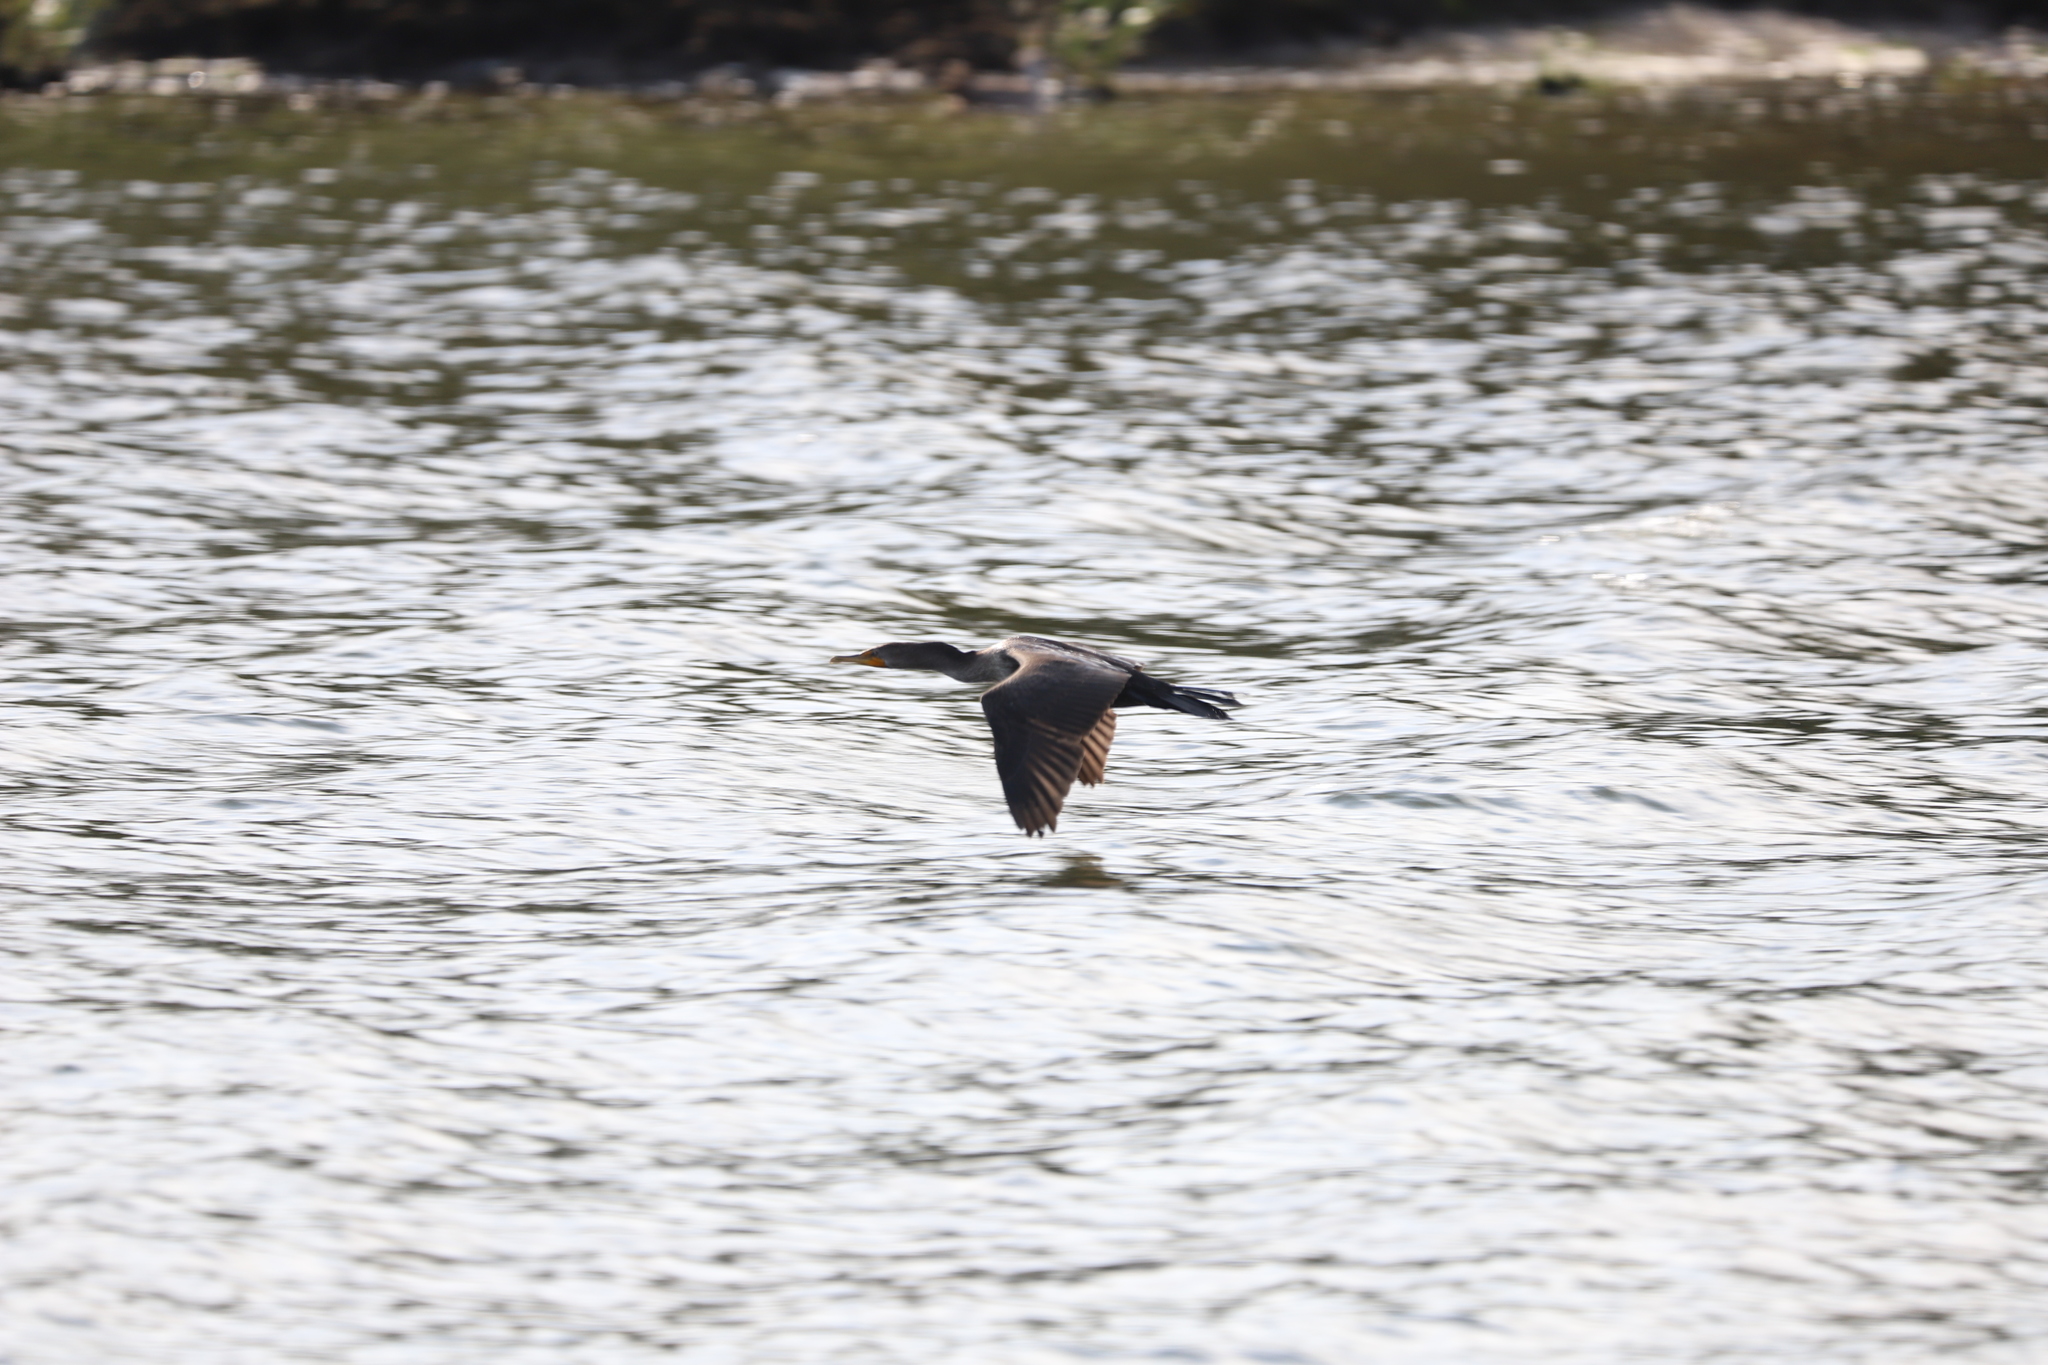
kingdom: Animalia
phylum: Chordata
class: Aves
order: Suliformes
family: Phalacrocoracidae
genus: Phalacrocorax
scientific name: Phalacrocorax auritus
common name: Double-crested cormorant
